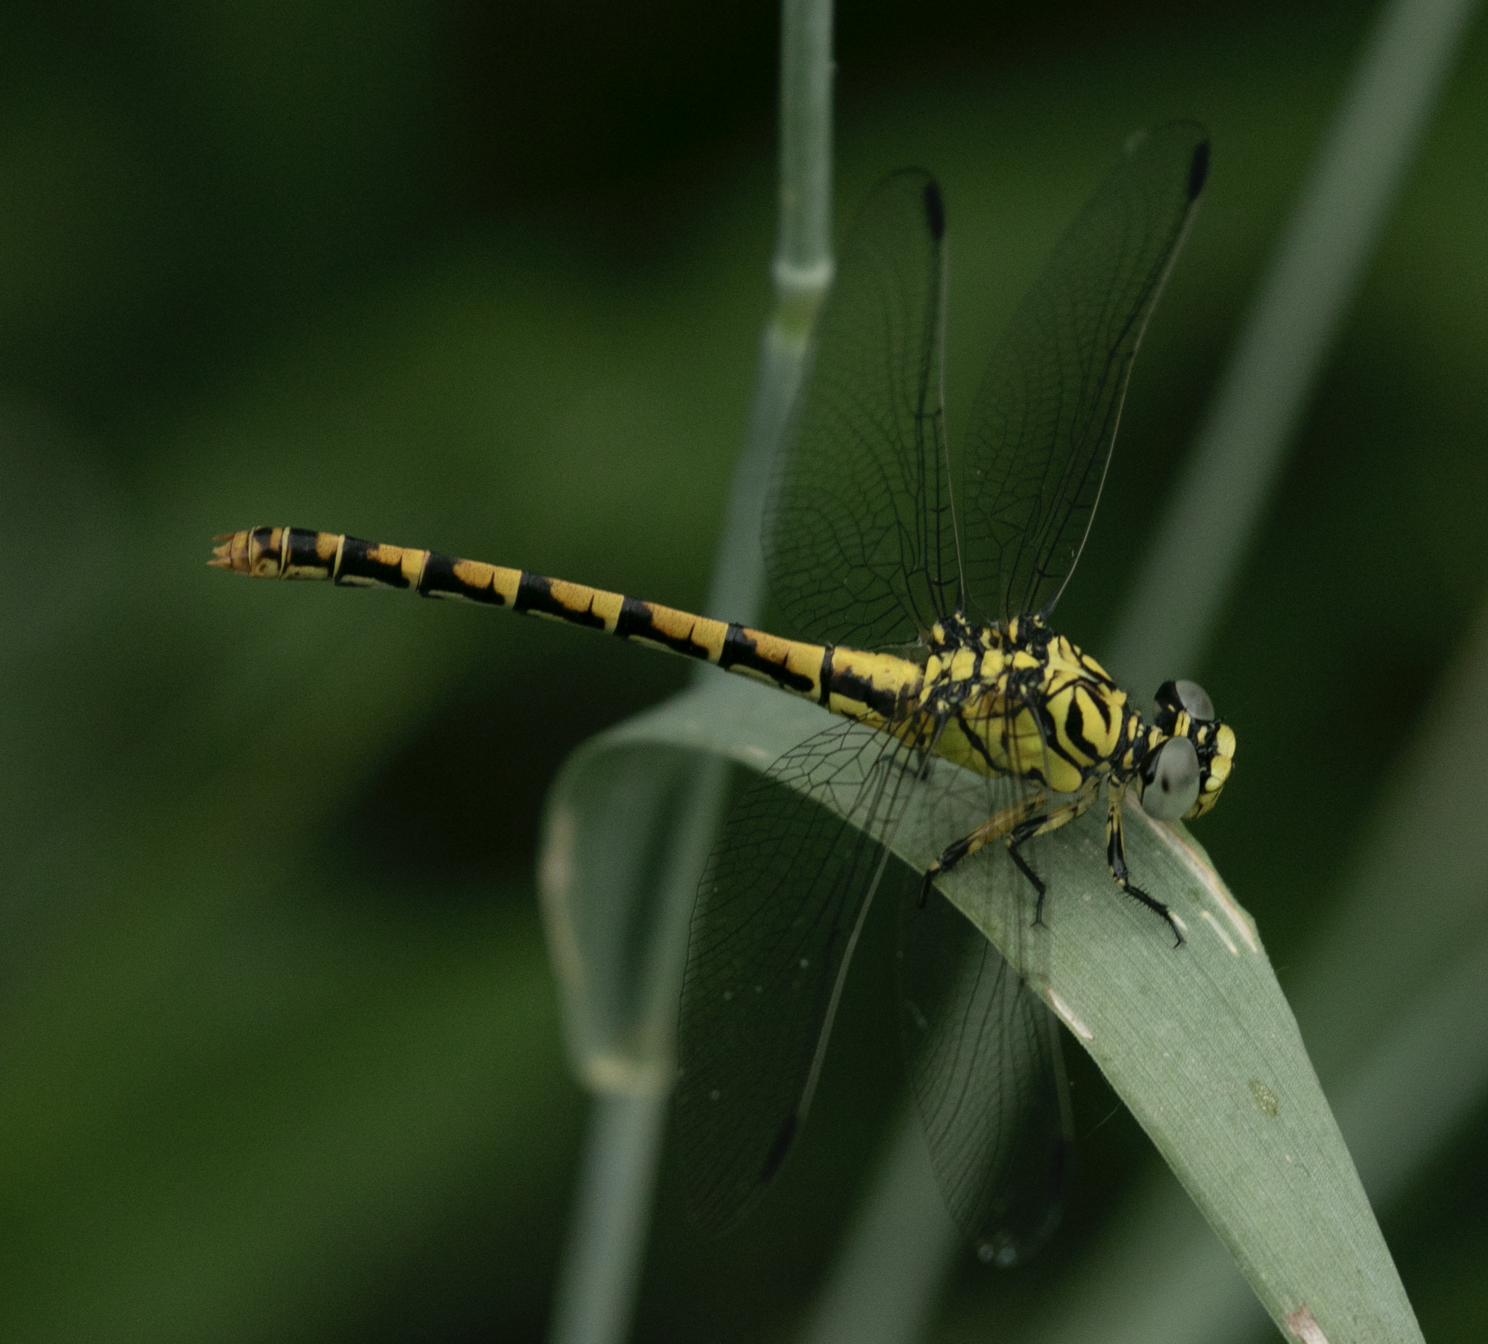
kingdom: Animalia
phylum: Arthropoda
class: Insecta
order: Odonata
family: Gomphidae
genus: Onychogomphus
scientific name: Onychogomphus forcipatus
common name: Small pincertail
